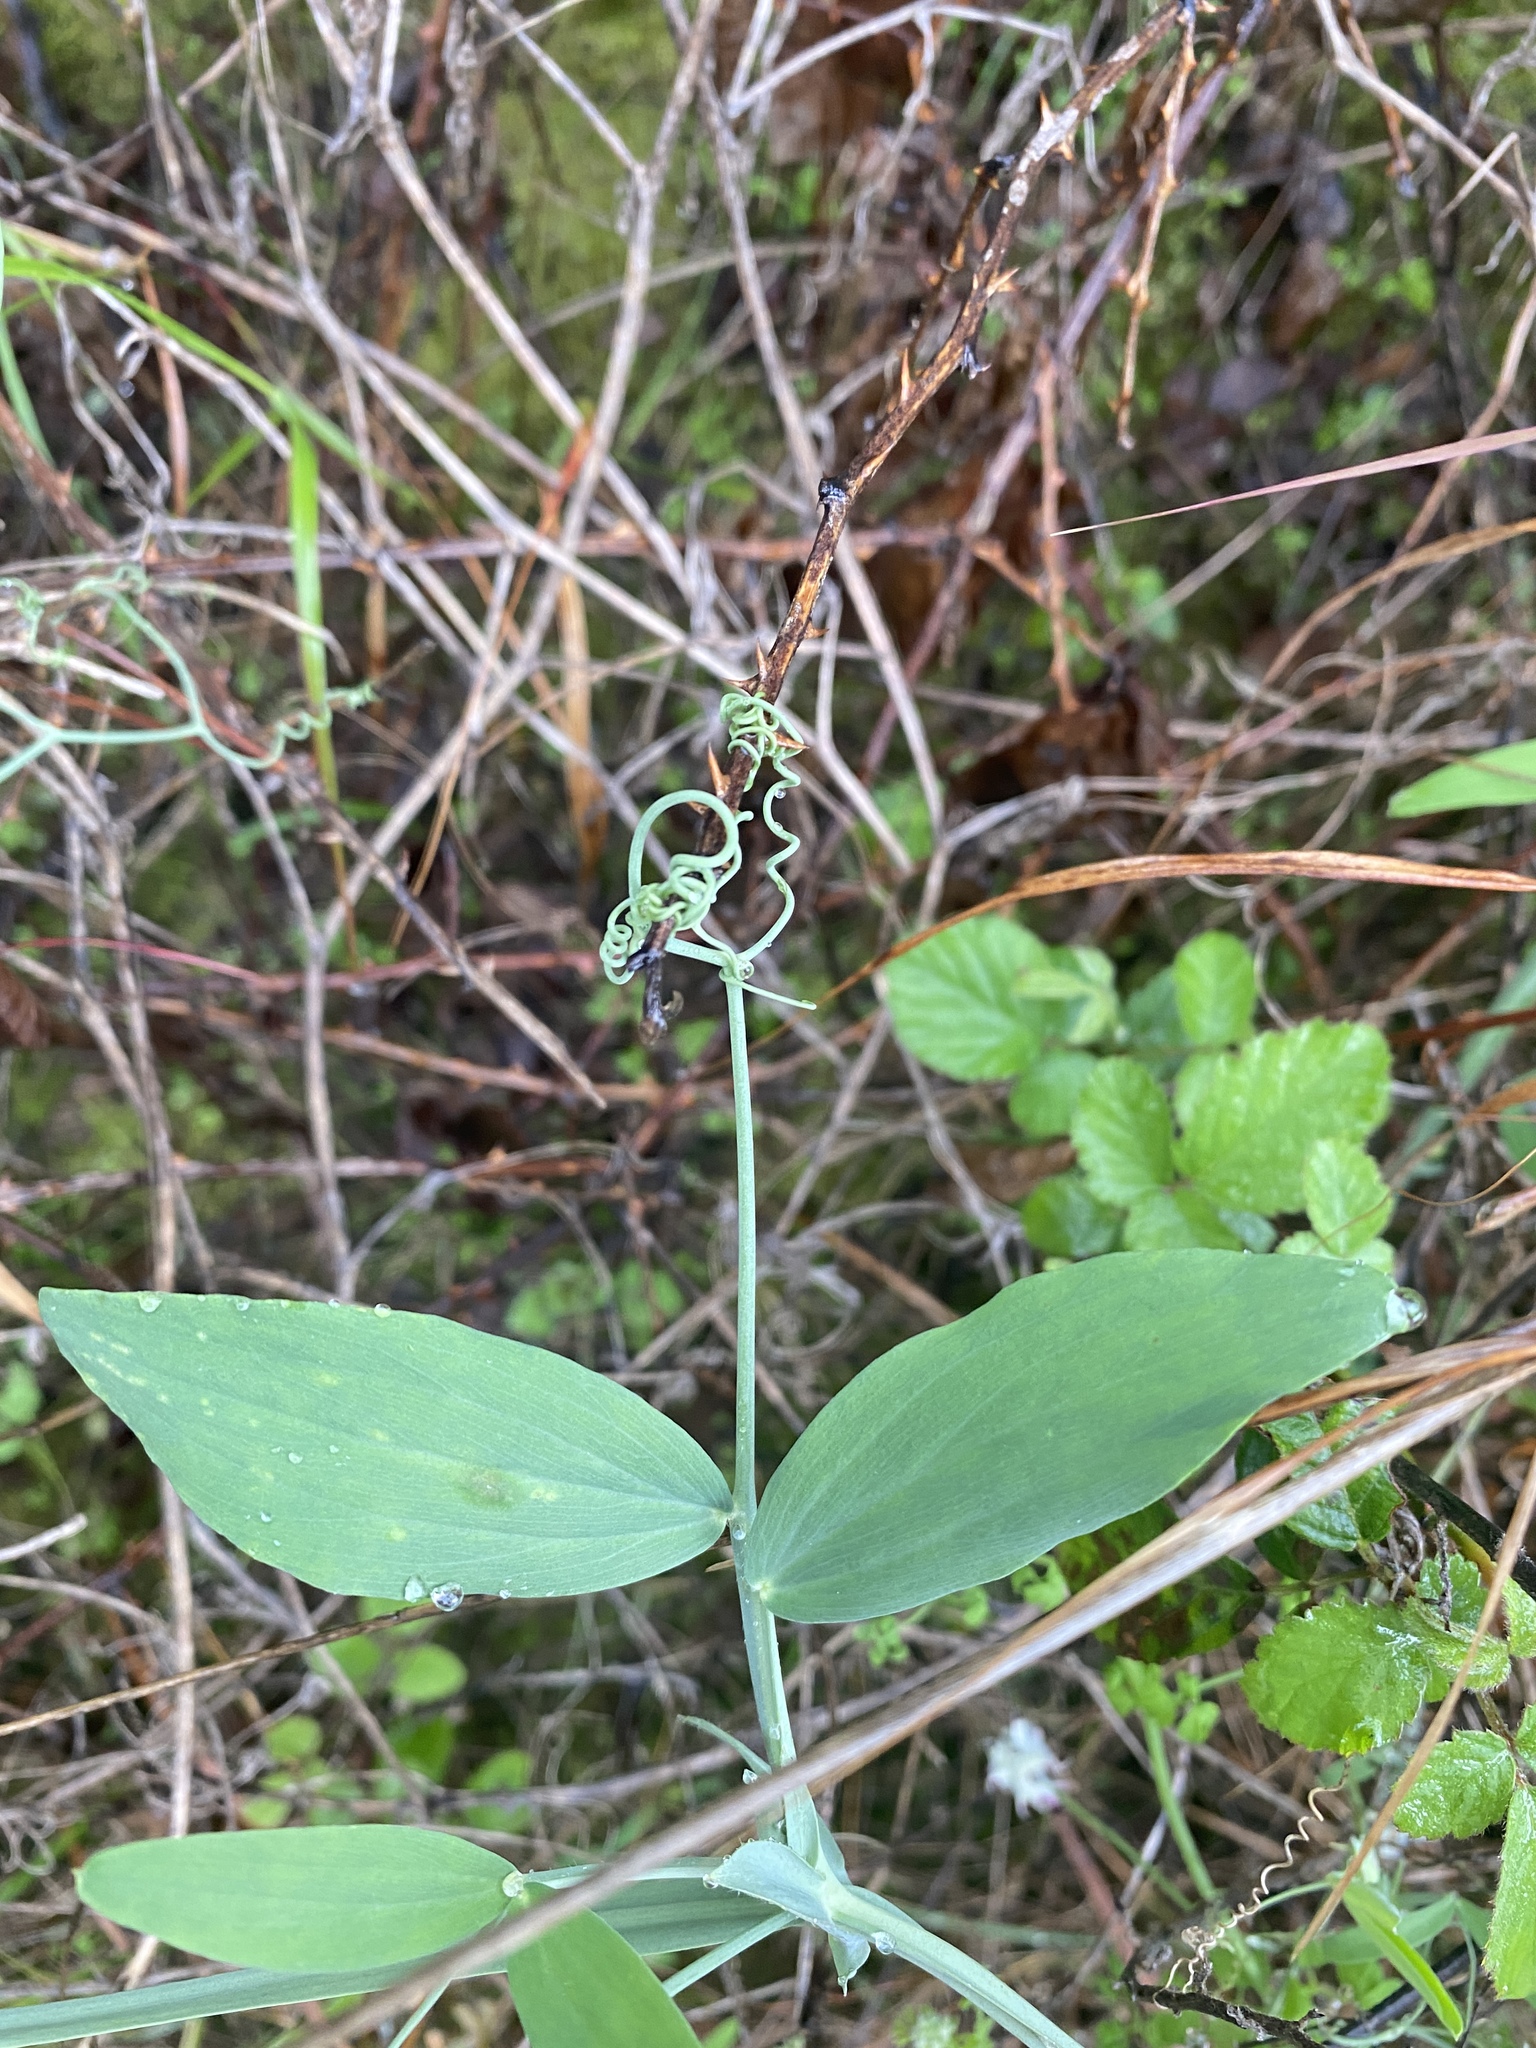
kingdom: Plantae
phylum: Tracheophyta
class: Magnoliopsida
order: Fabales
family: Fabaceae
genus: Lathyrus
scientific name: Lathyrus tingitanus
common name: Tangier pea
